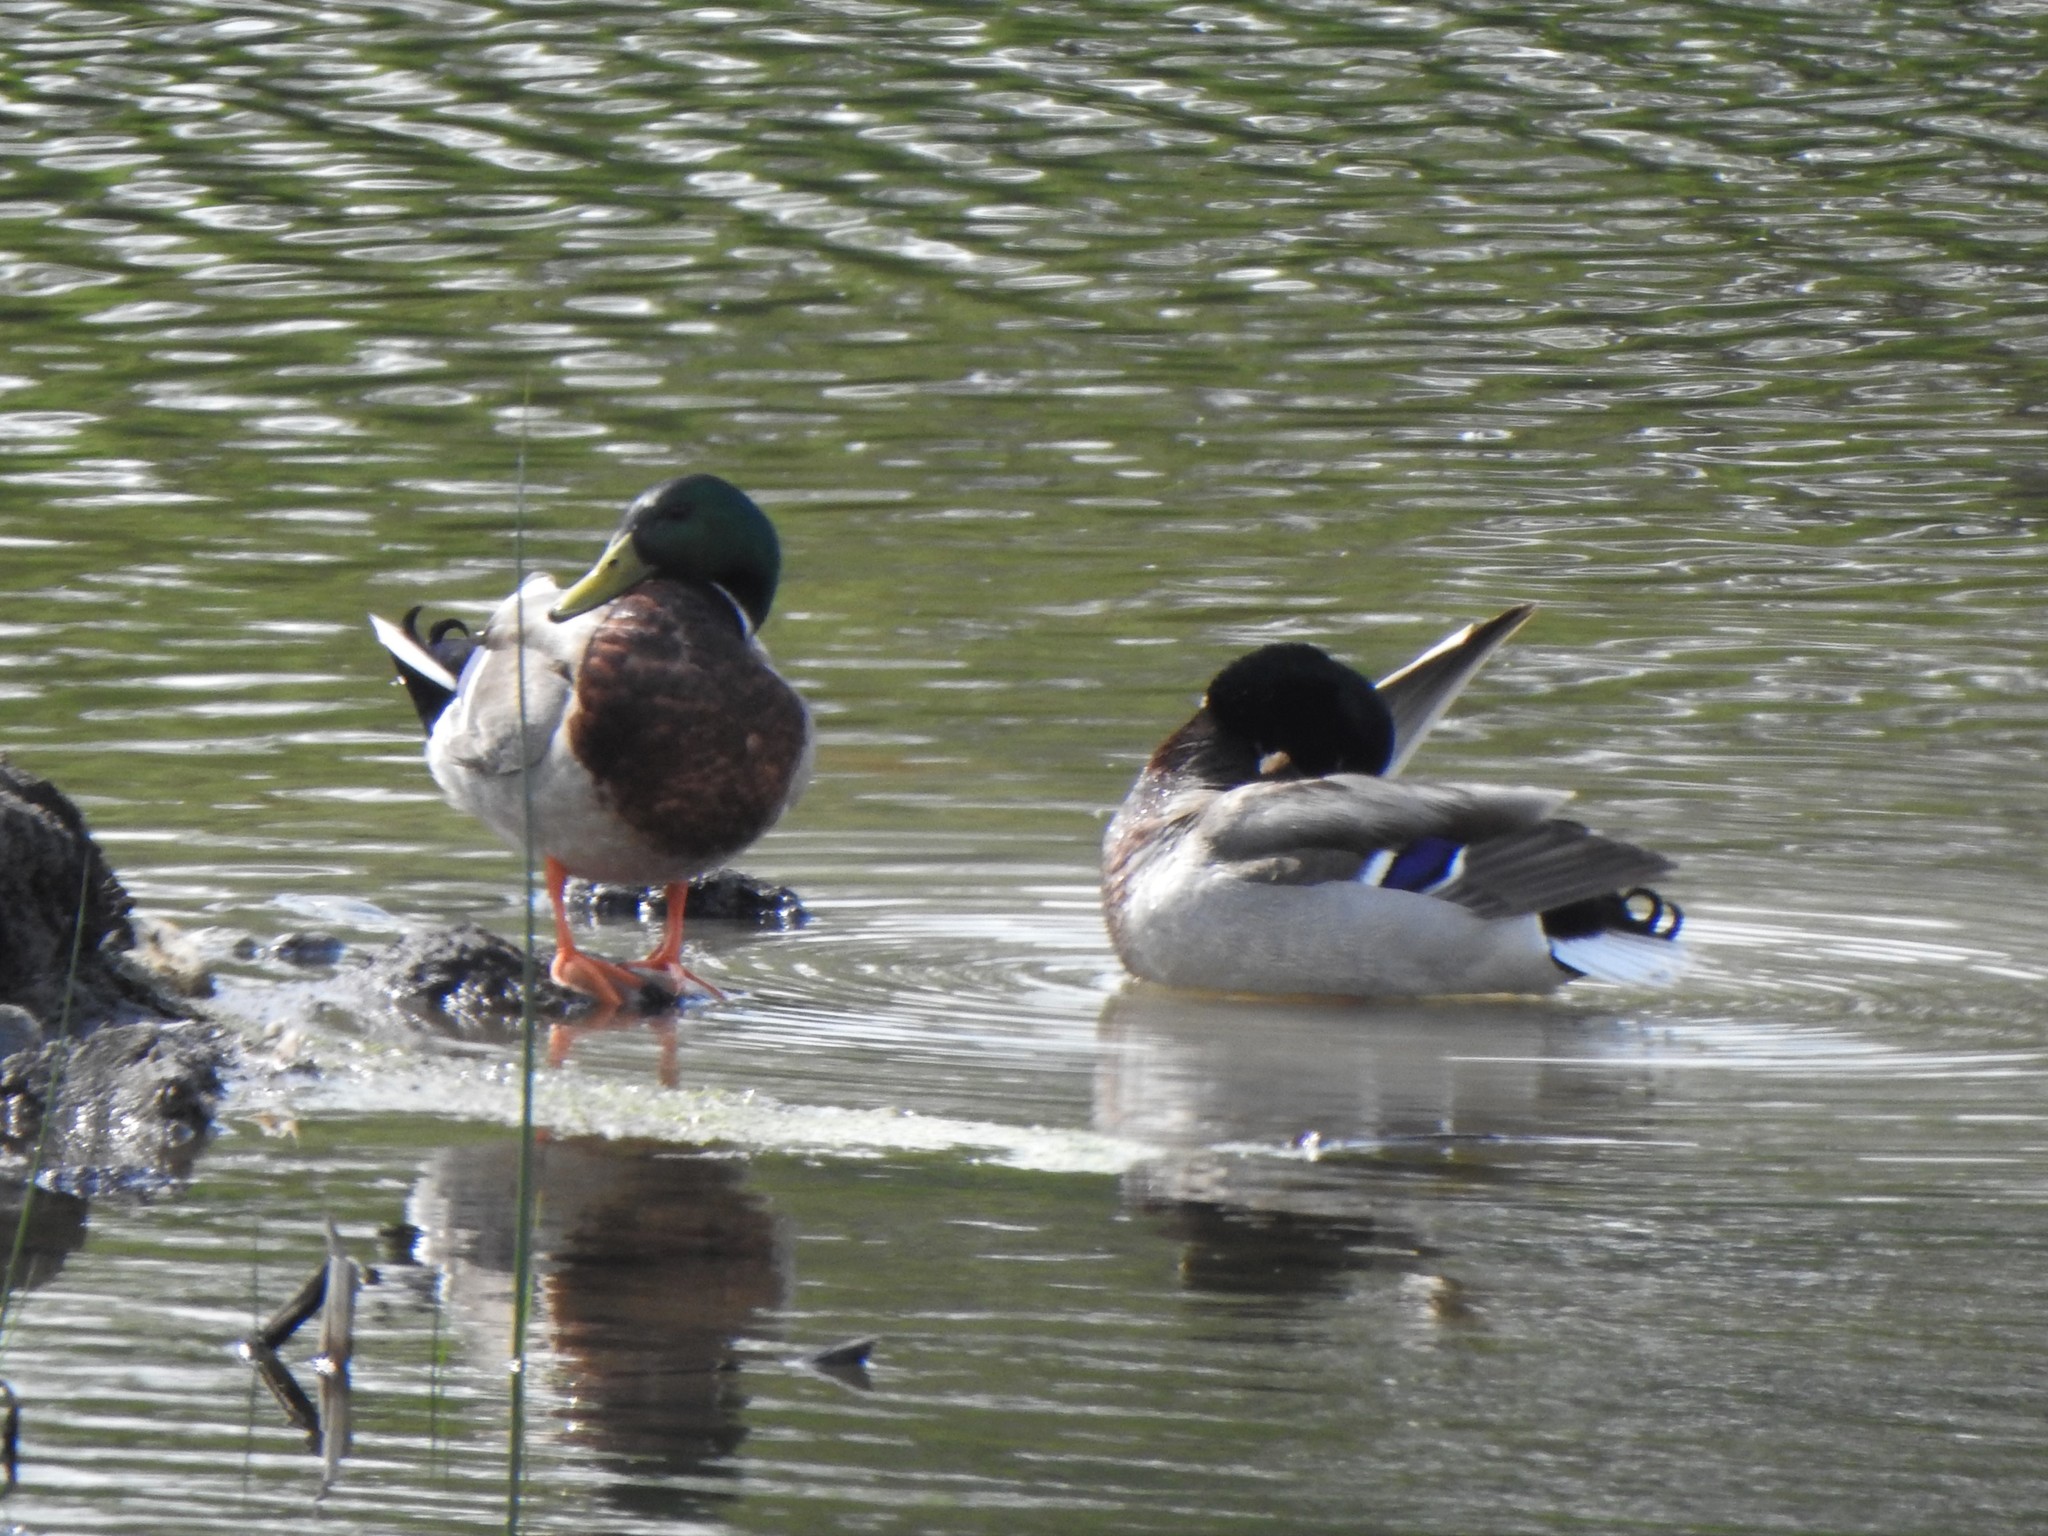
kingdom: Animalia
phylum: Chordata
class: Aves
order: Anseriformes
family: Anatidae
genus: Anas
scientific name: Anas platyrhynchos
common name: Mallard
